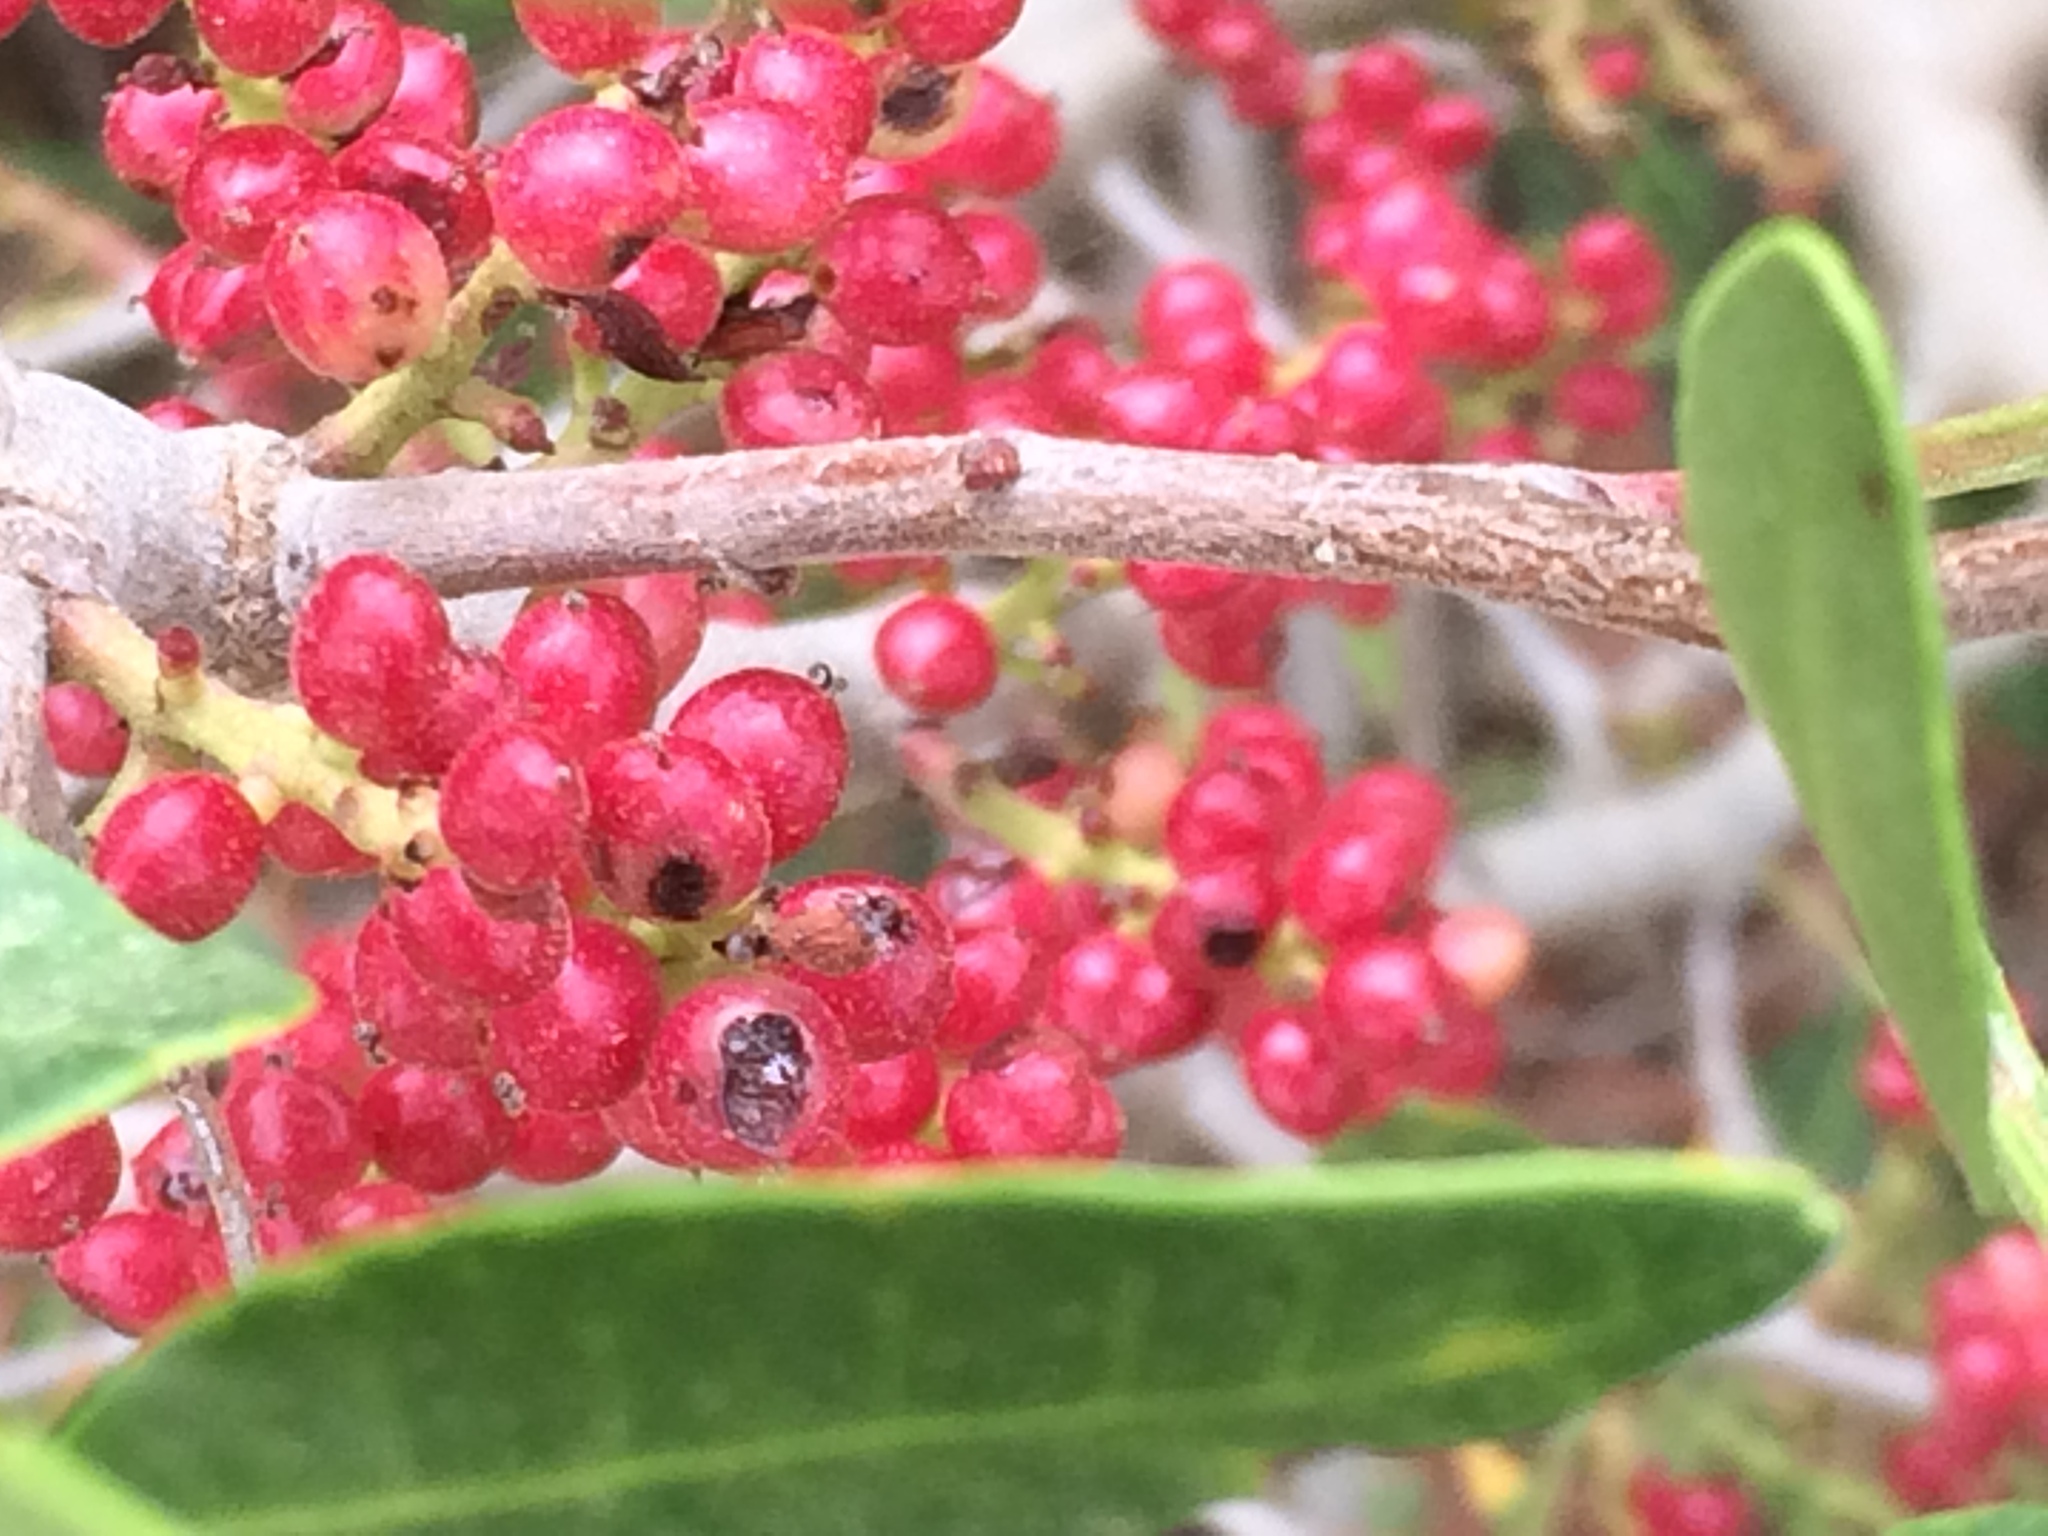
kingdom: Plantae
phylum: Tracheophyta
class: Magnoliopsida
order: Sapindales
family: Anacardiaceae
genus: Pistacia
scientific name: Pistacia lentiscus
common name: Lentisk
